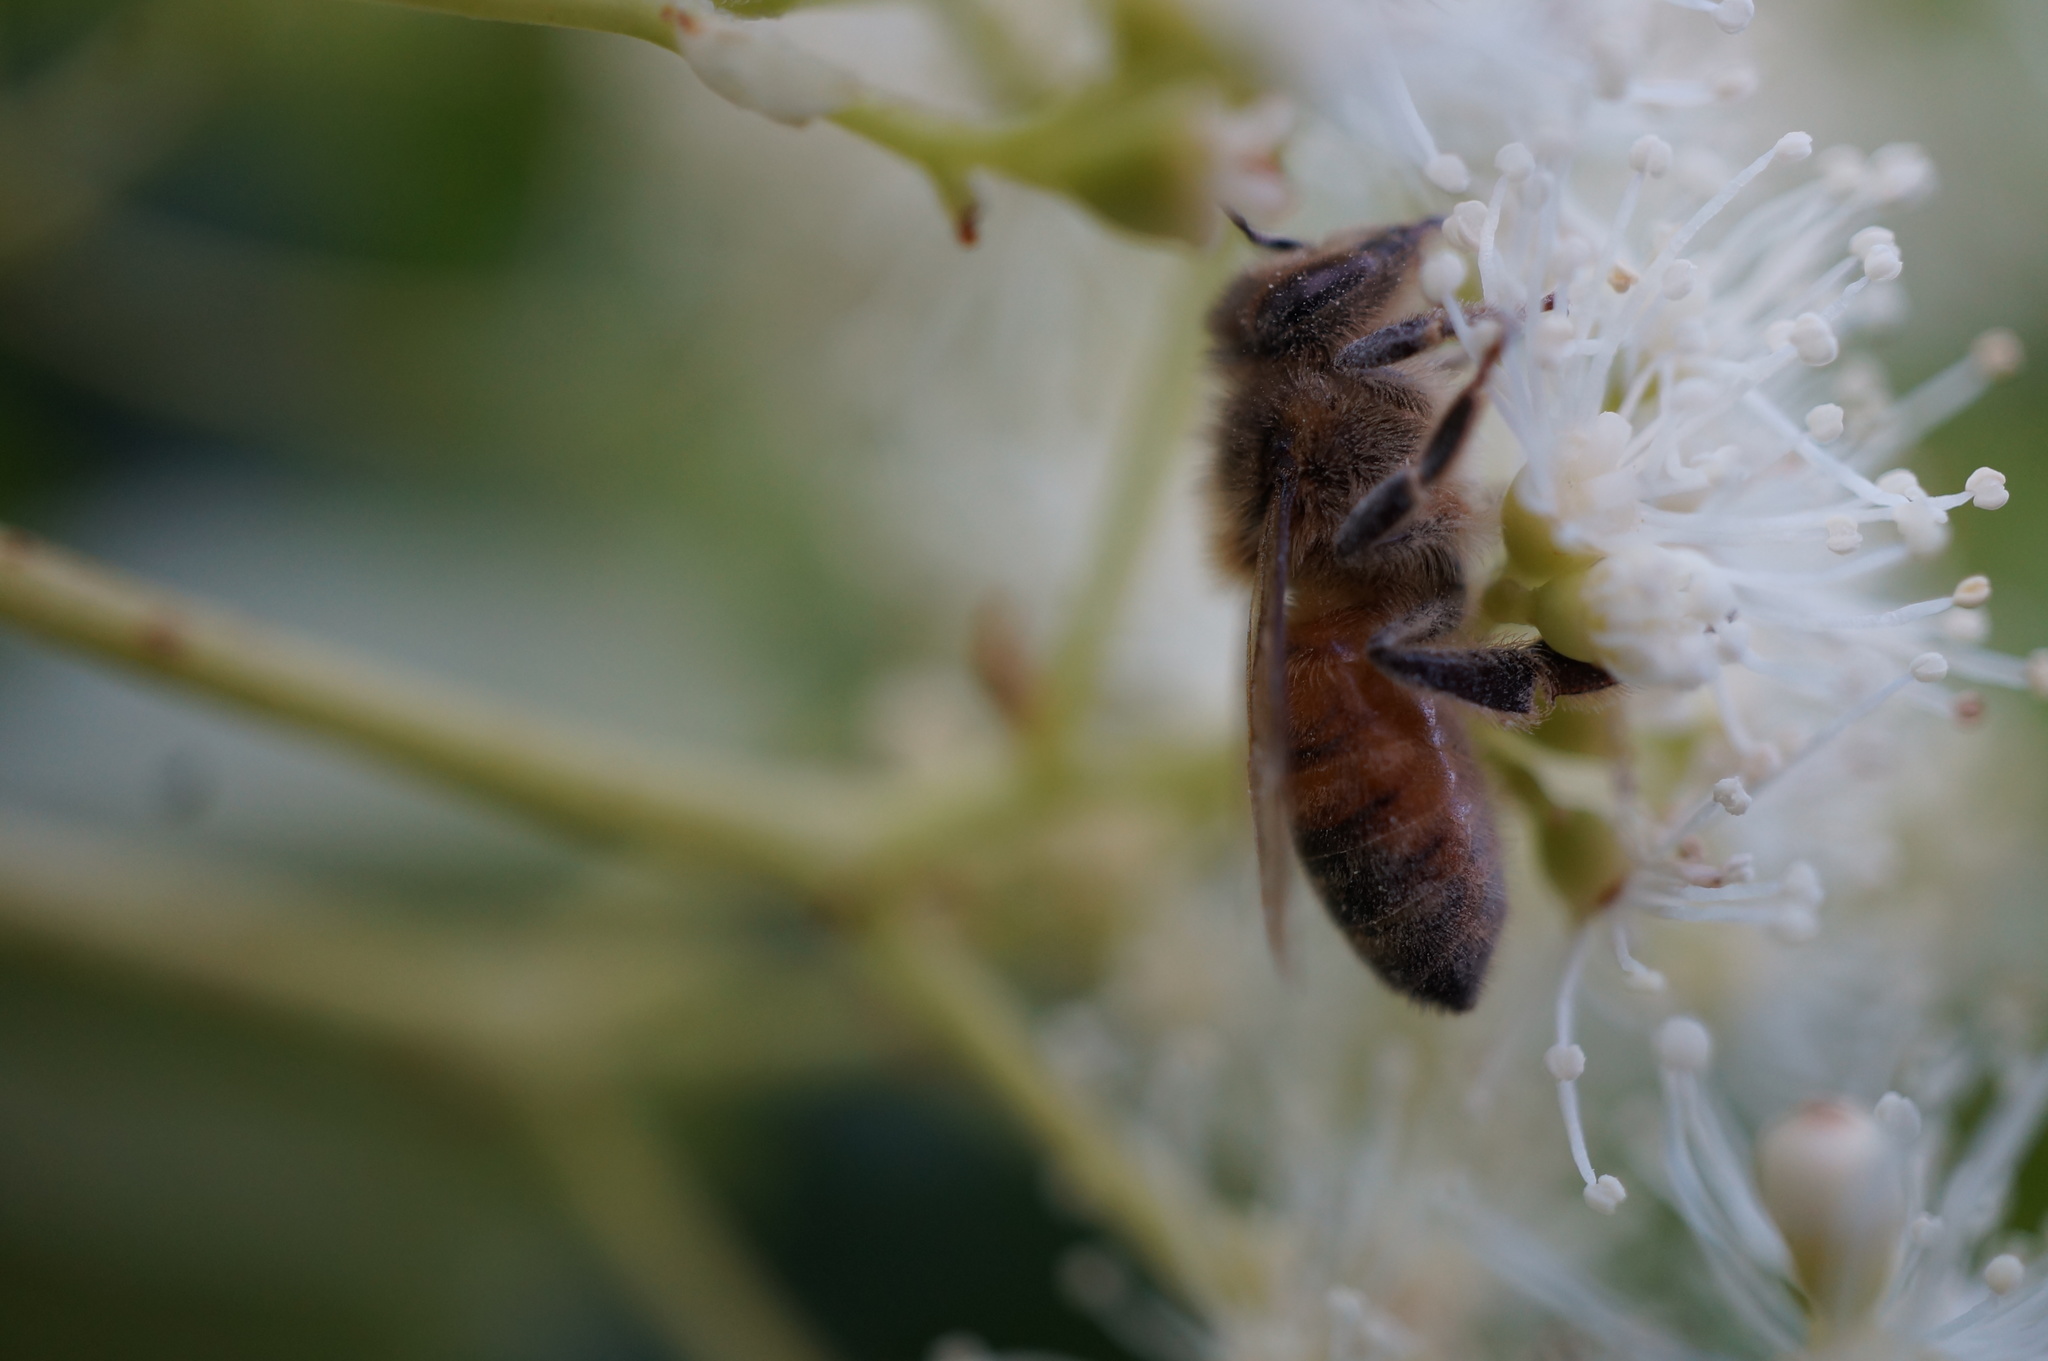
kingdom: Animalia
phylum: Arthropoda
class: Insecta
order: Hymenoptera
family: Apidae
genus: Apis
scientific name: Apis mellifera
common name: Honey bee
